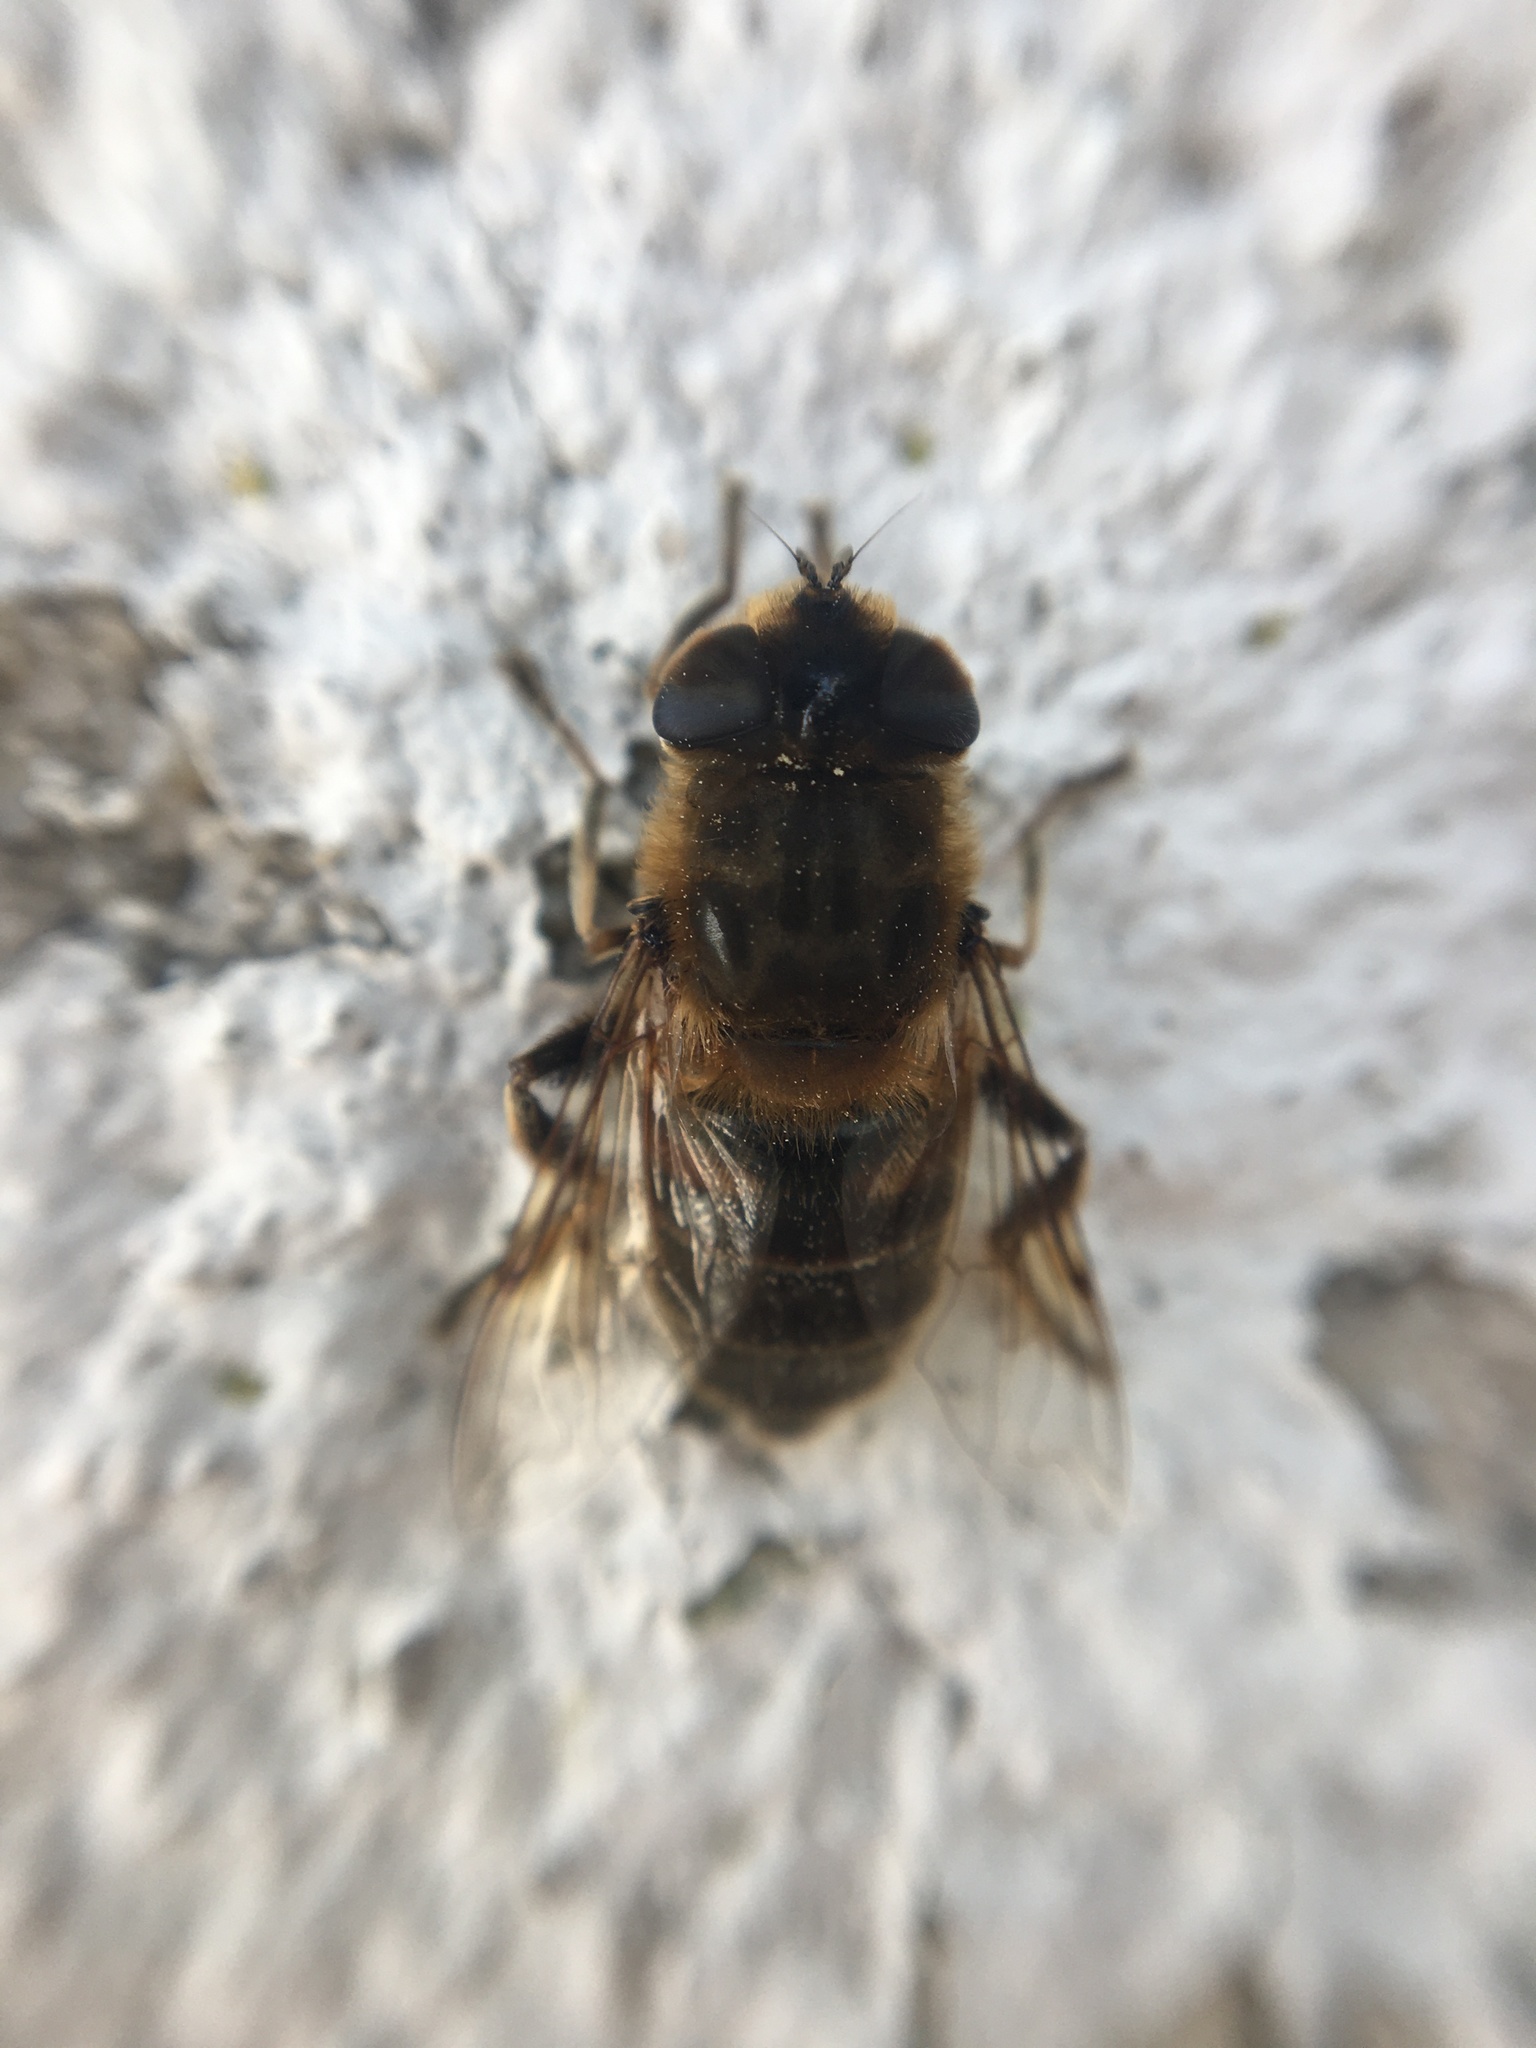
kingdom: Animalia
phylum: Arthropoda
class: Insecta
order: Diptera
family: Syrphidae
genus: Eristalis
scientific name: Eristalis tenax
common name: Drone fly
